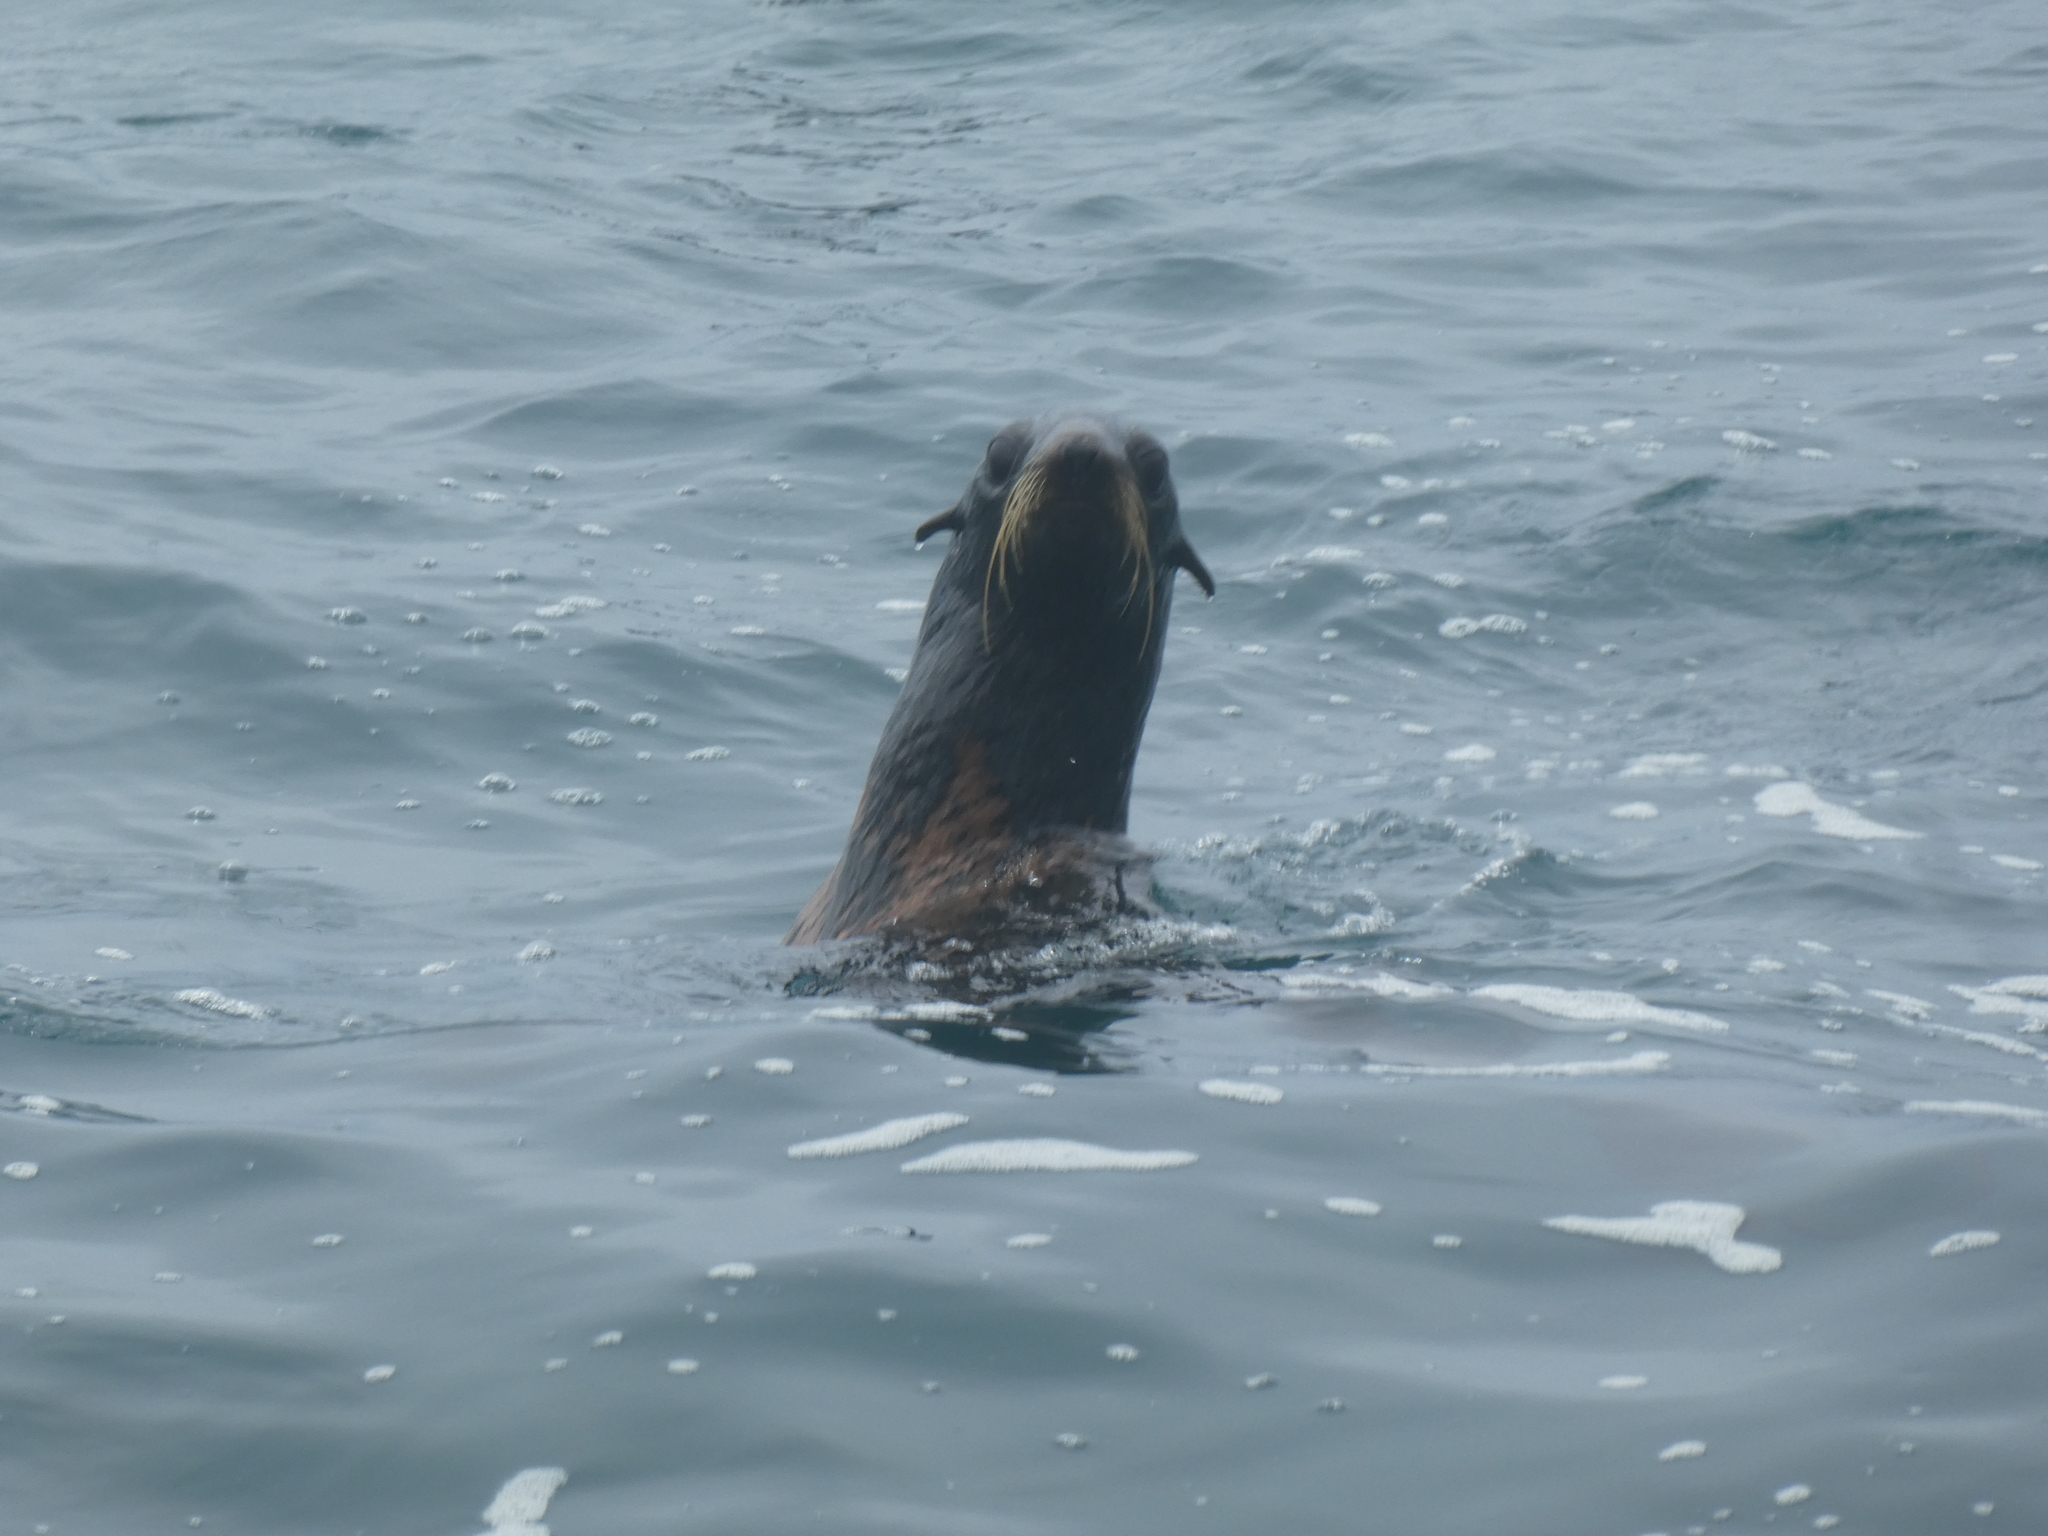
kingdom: Animalia
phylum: Chordata
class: Mammalia
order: Carnivora
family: Otariidae
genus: Callorhinus
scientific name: Callorhinus ursinus
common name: Northern fur seal
